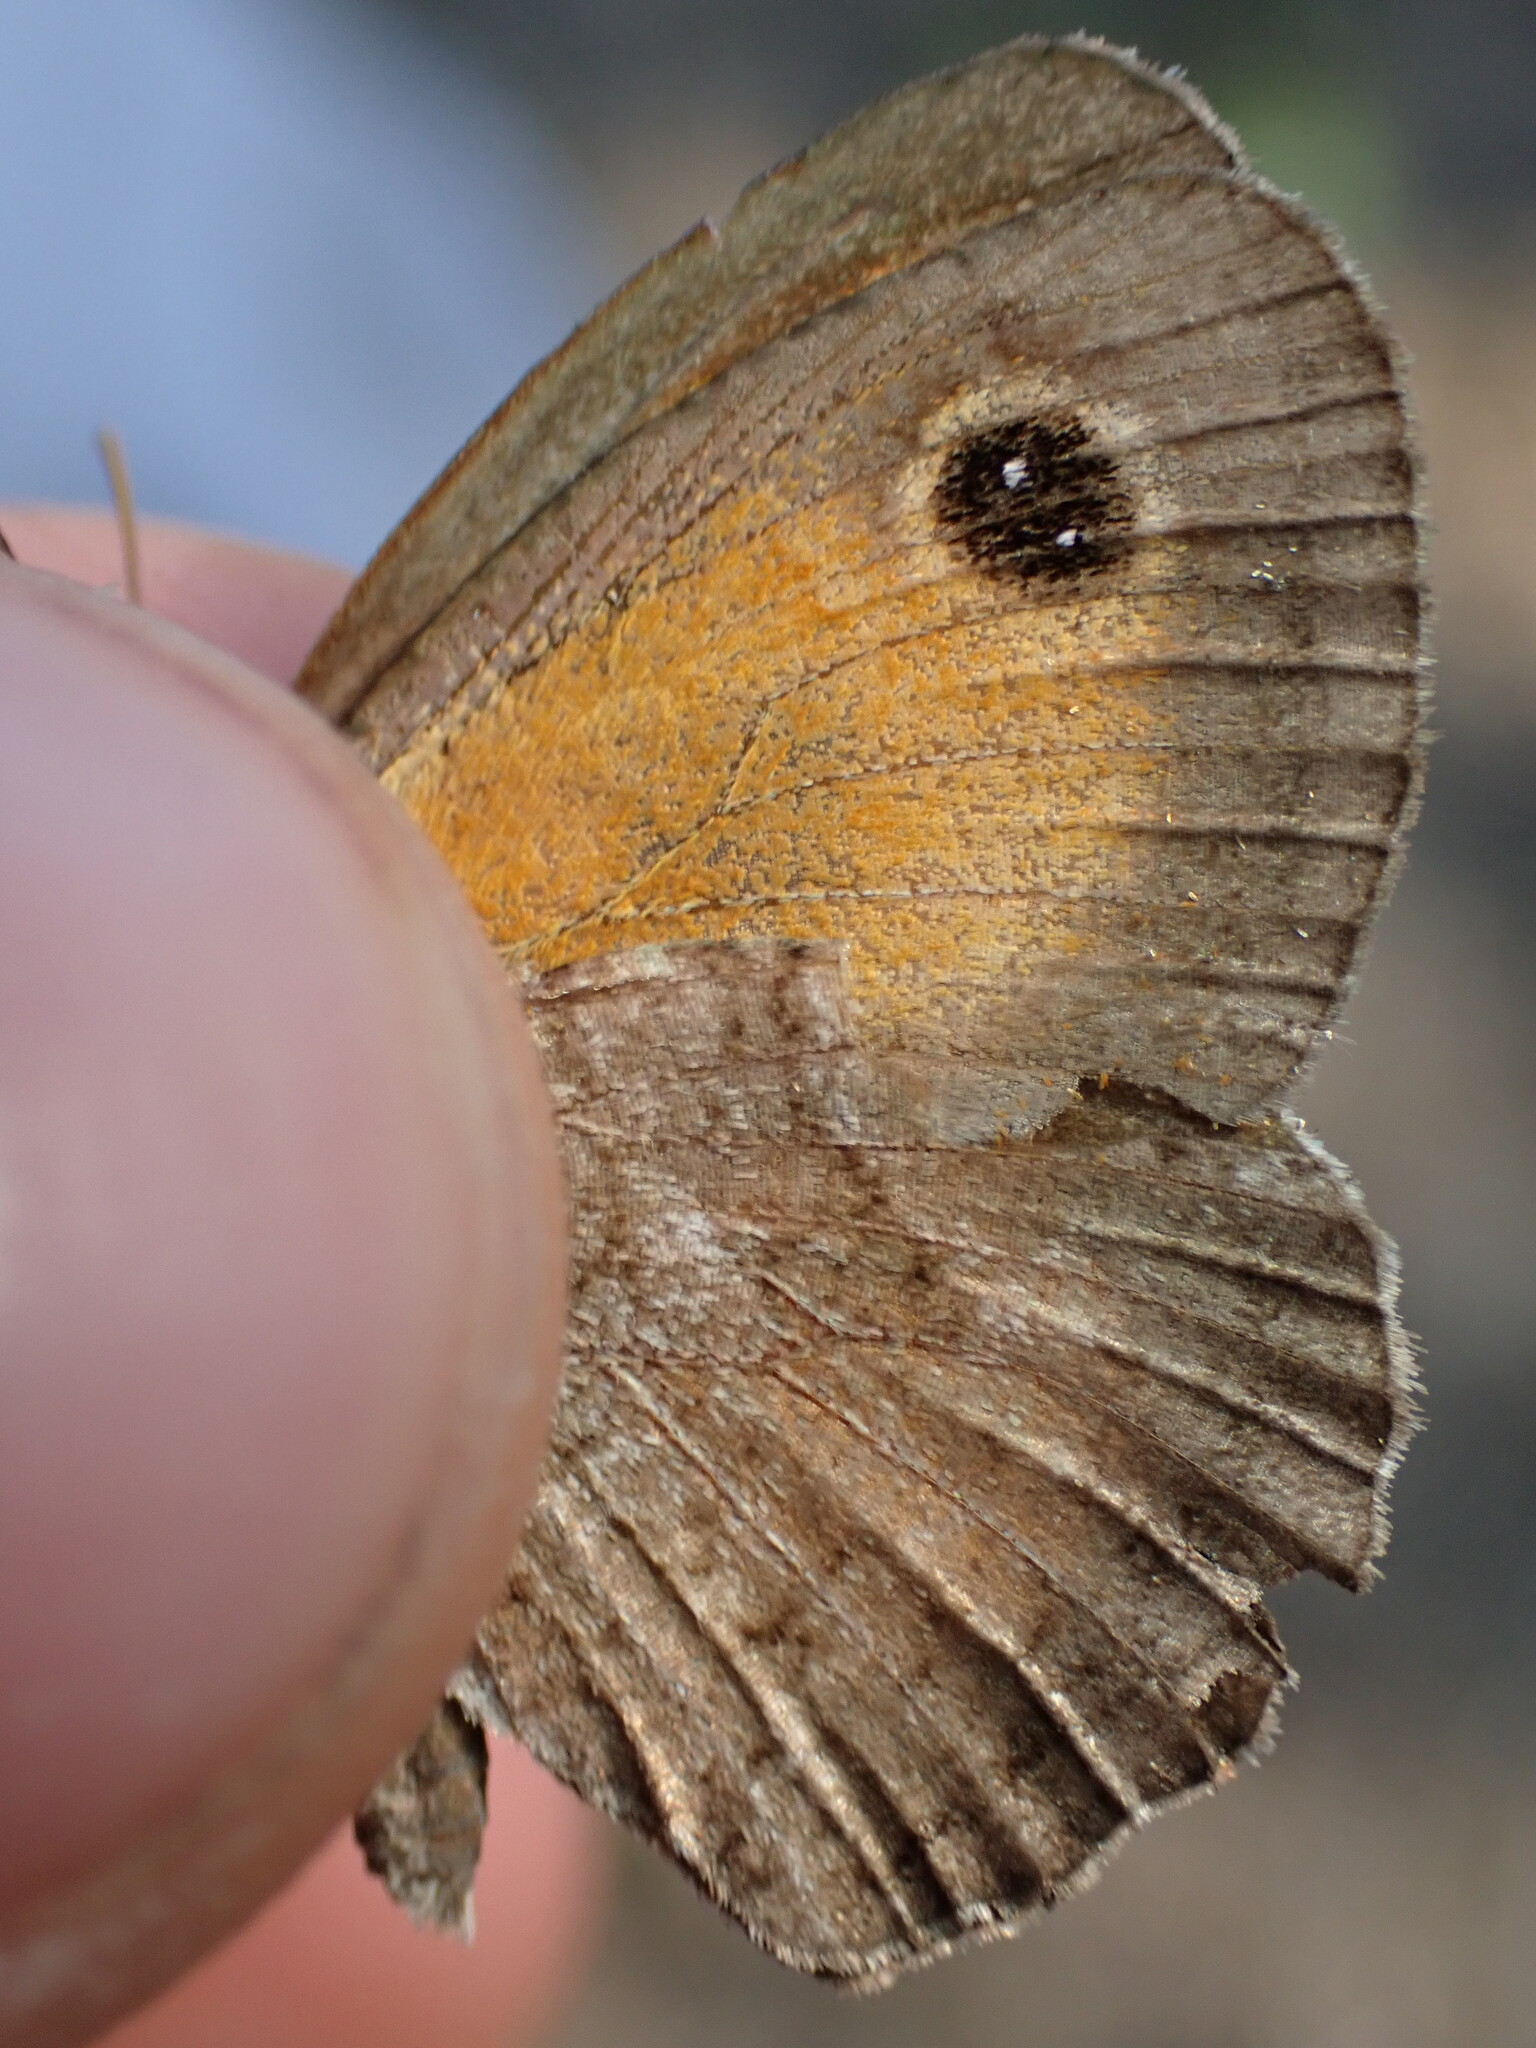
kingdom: Animalia
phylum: Arthropoda
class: Insecta
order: Lepidoptera
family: Nymphalidae
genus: Pyronia
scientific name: Pyronia cecilia
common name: Southern gatekeeper
